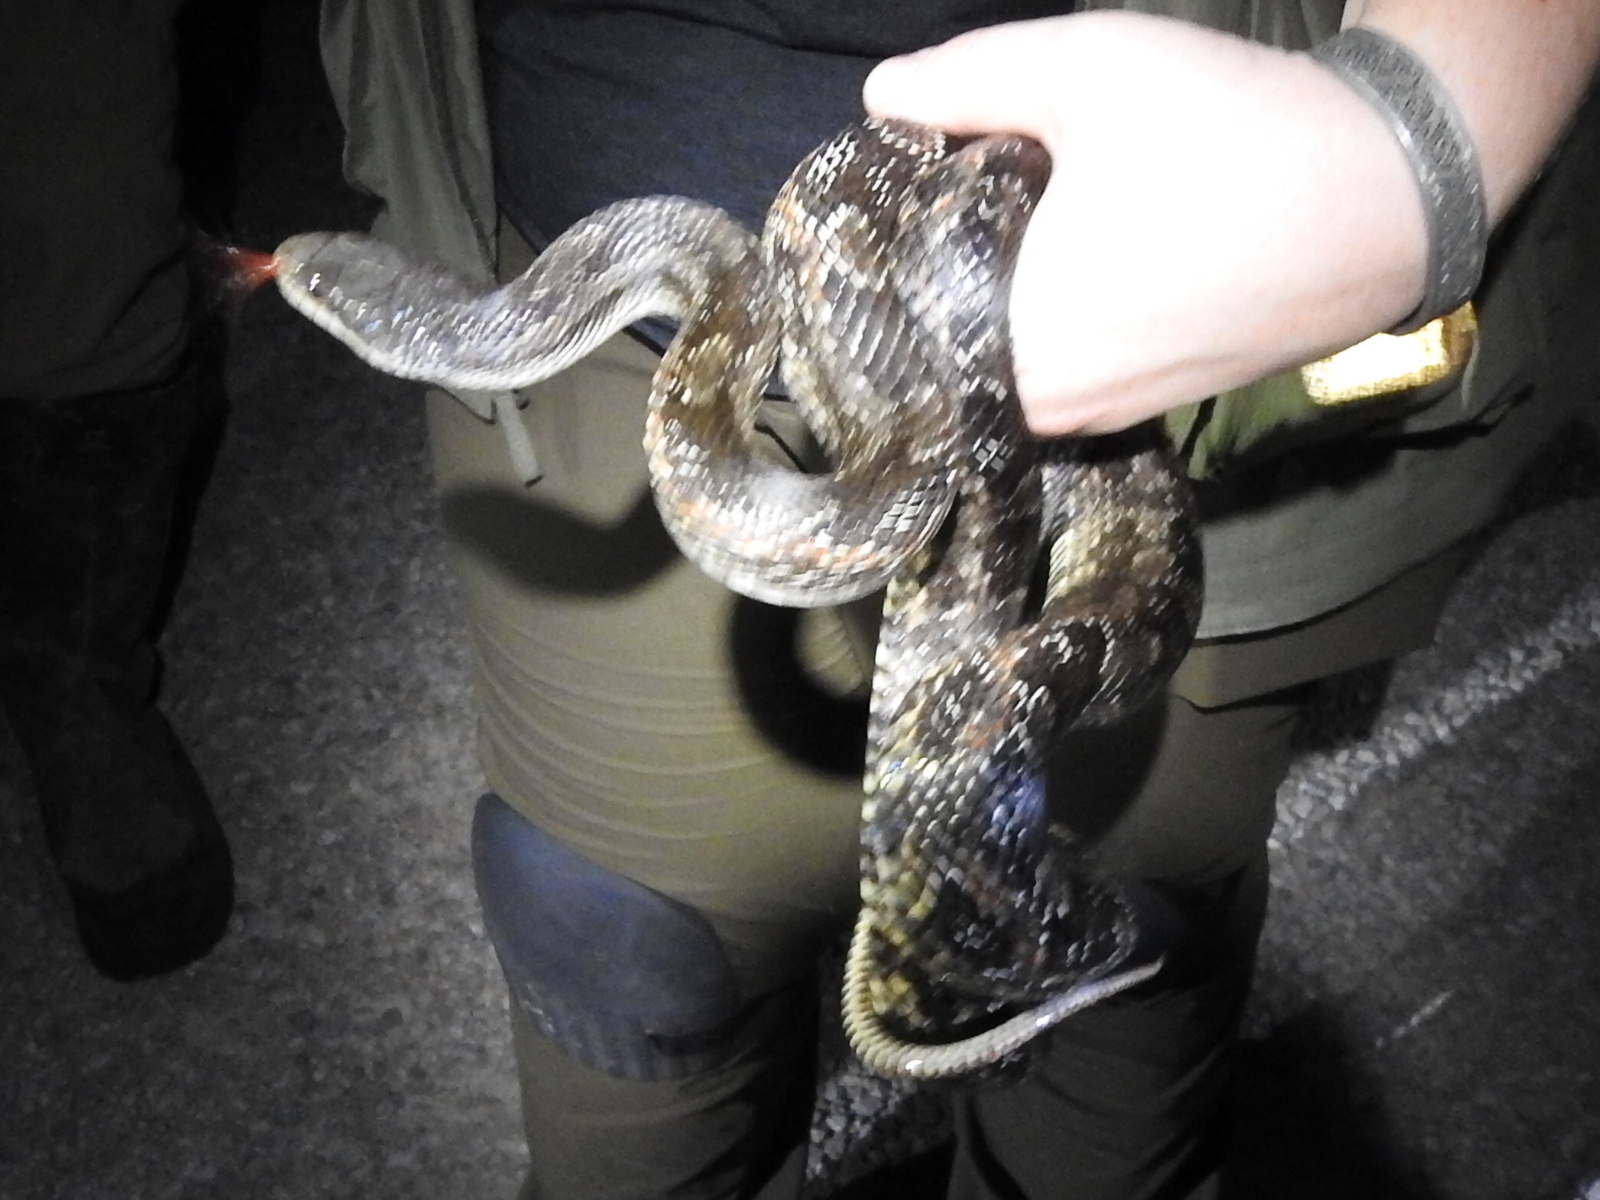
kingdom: Animalia
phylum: Chordata
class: Squamata
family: Colubridae
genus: Pantherophis
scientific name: Pantherophis obsoletus
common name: Black rat snake
